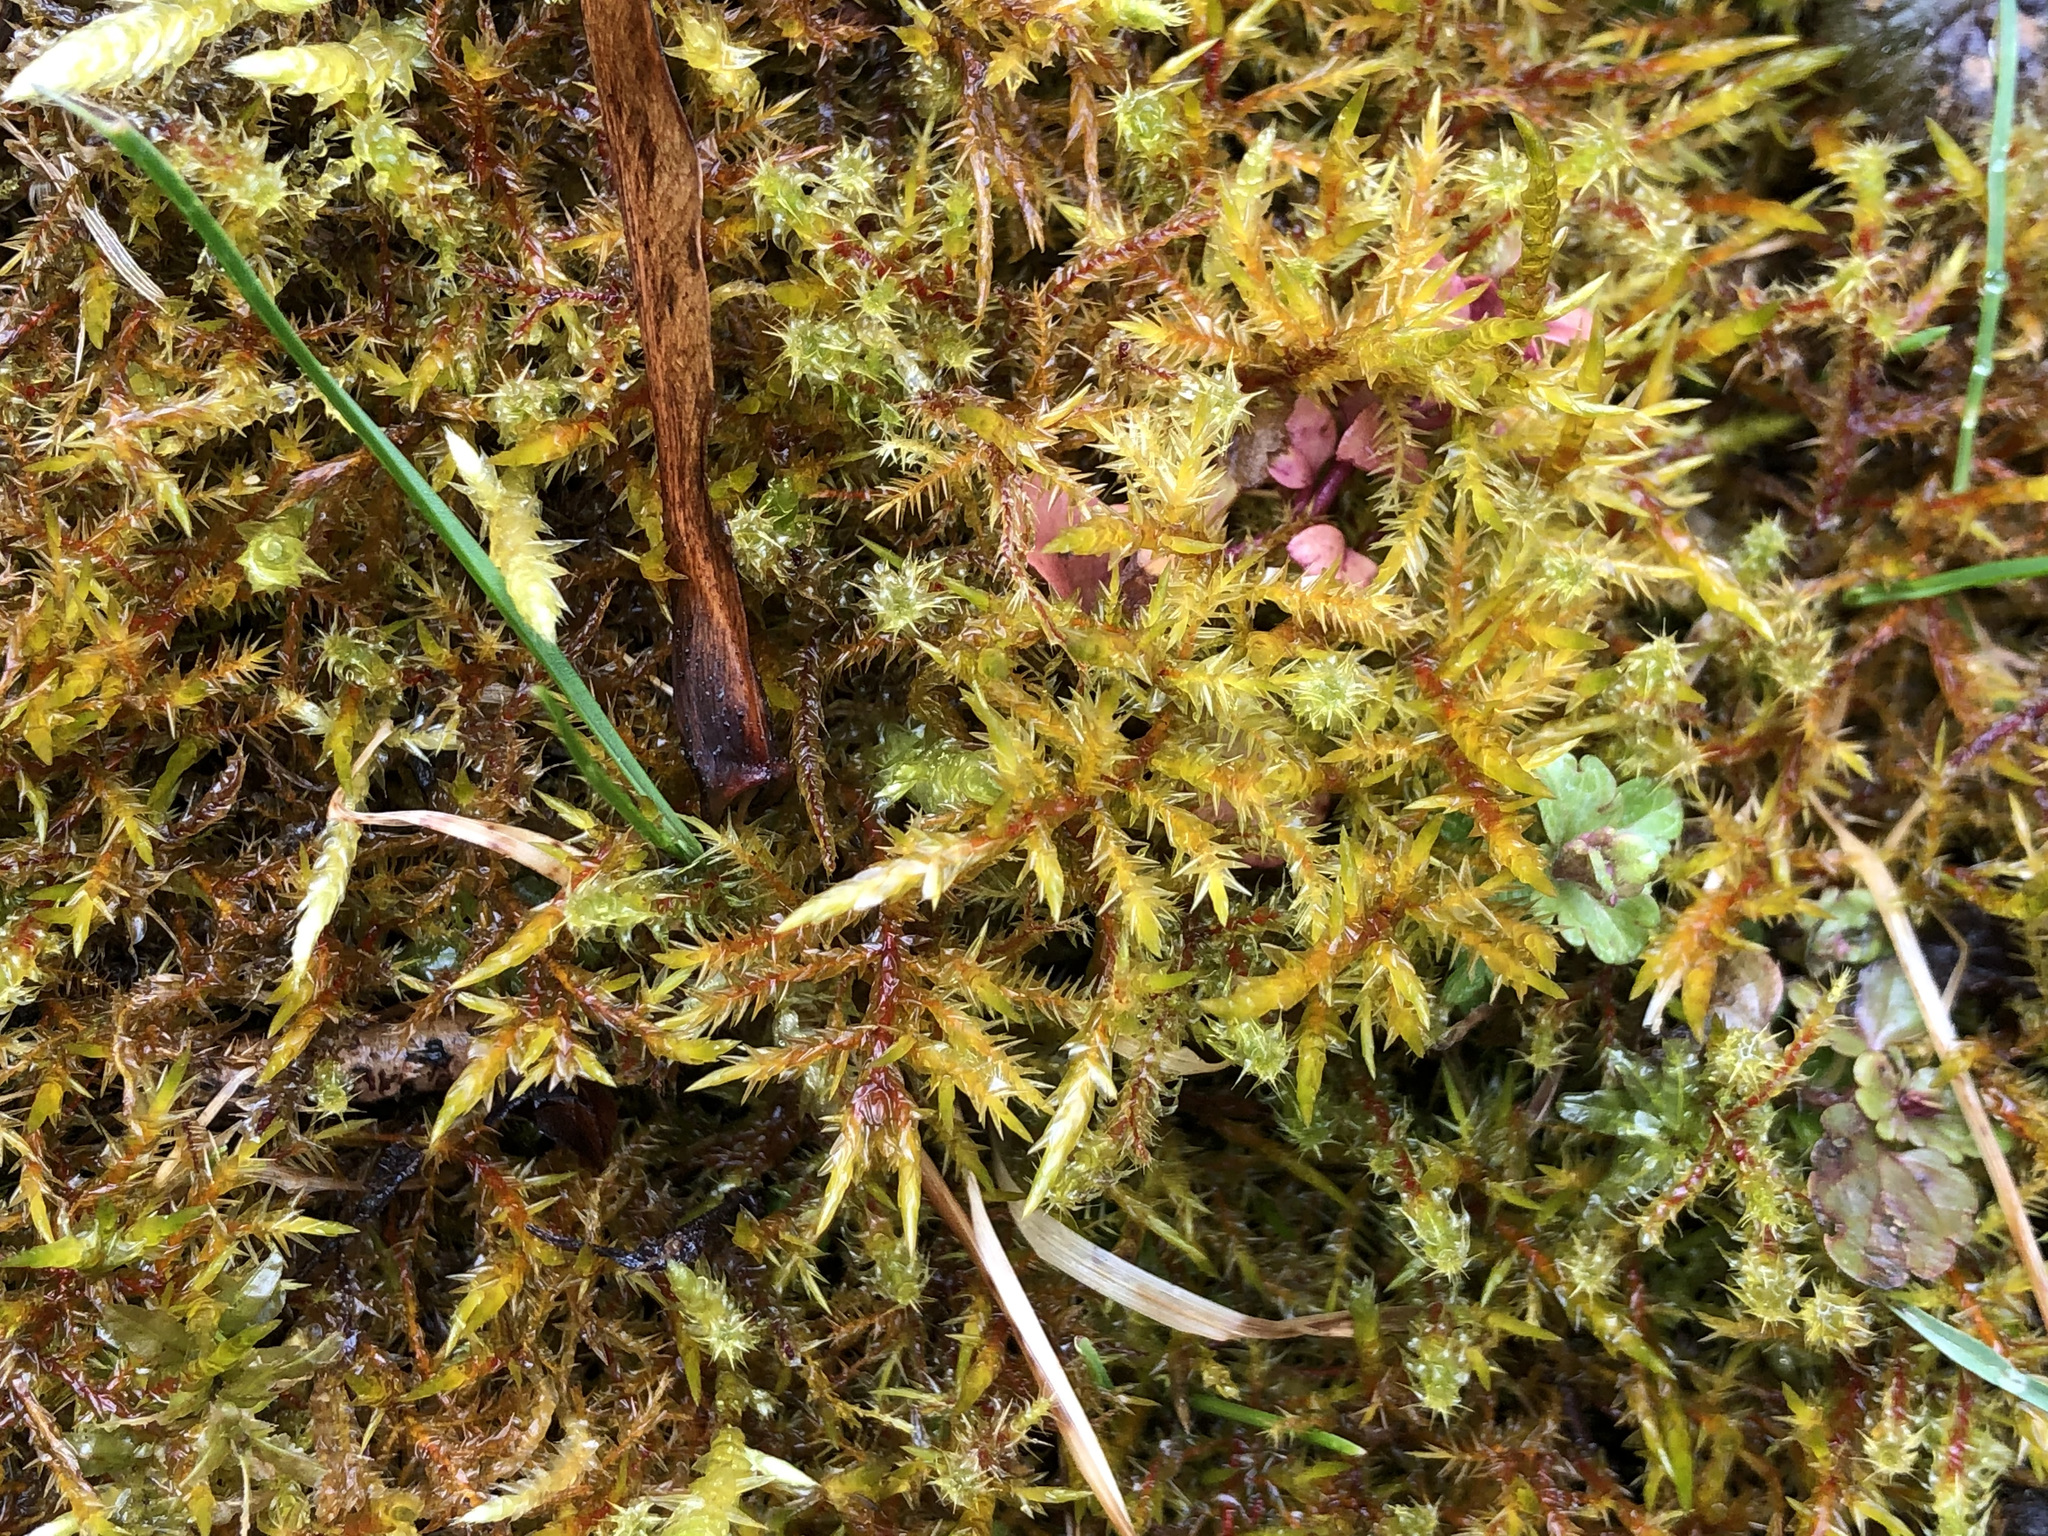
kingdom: Plantae
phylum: Bryophyta
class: Bryopsida
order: Hypnales
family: Pylaisiaceae
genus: Calliergonella
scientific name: Calliergonella cuspidata
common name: Common large wetland moss
